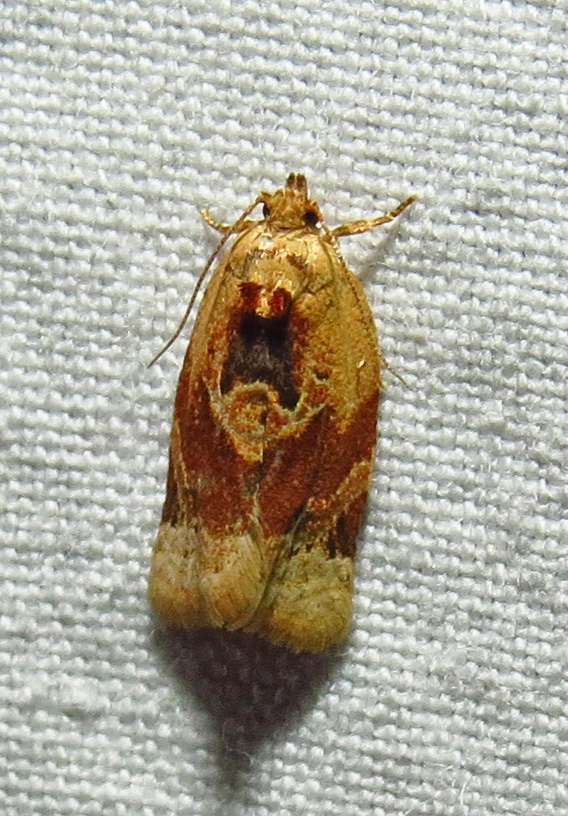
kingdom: Animalia
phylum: Arthropoda
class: Insecta
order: Lepidoptera
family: Tortricidae
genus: Argyrotaenia
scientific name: Argyrotaenia velutinana
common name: Red-banded leafroller moth
